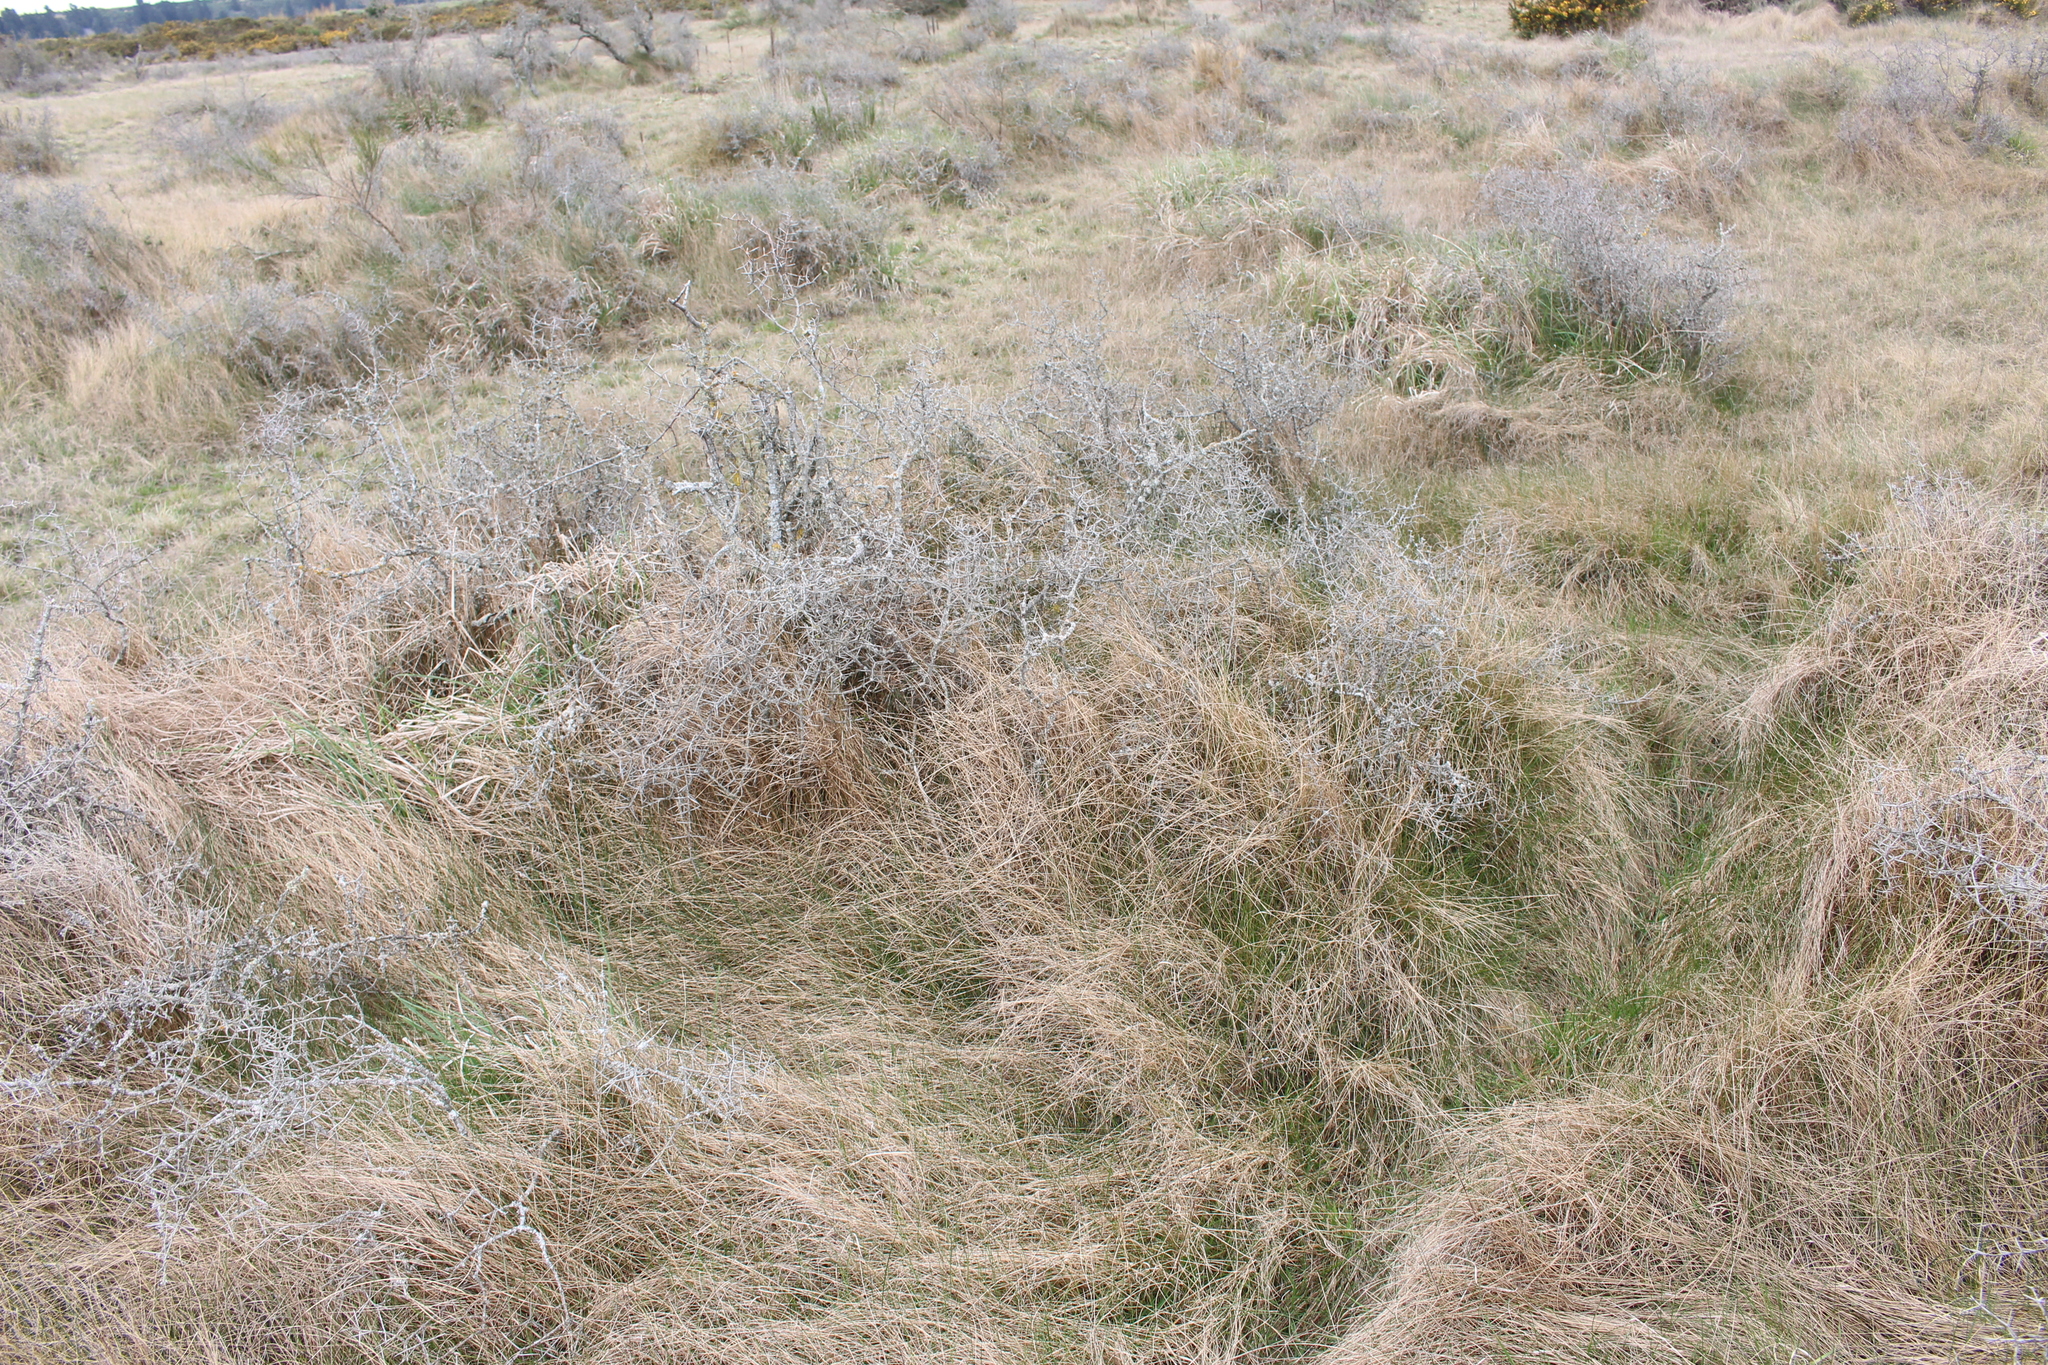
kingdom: Plantae
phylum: Tracheophyta
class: Liliopsida
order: Poales
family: Poaceae
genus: Agrostis
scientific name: Agrostis capillaris
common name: Colonial bentgrass
